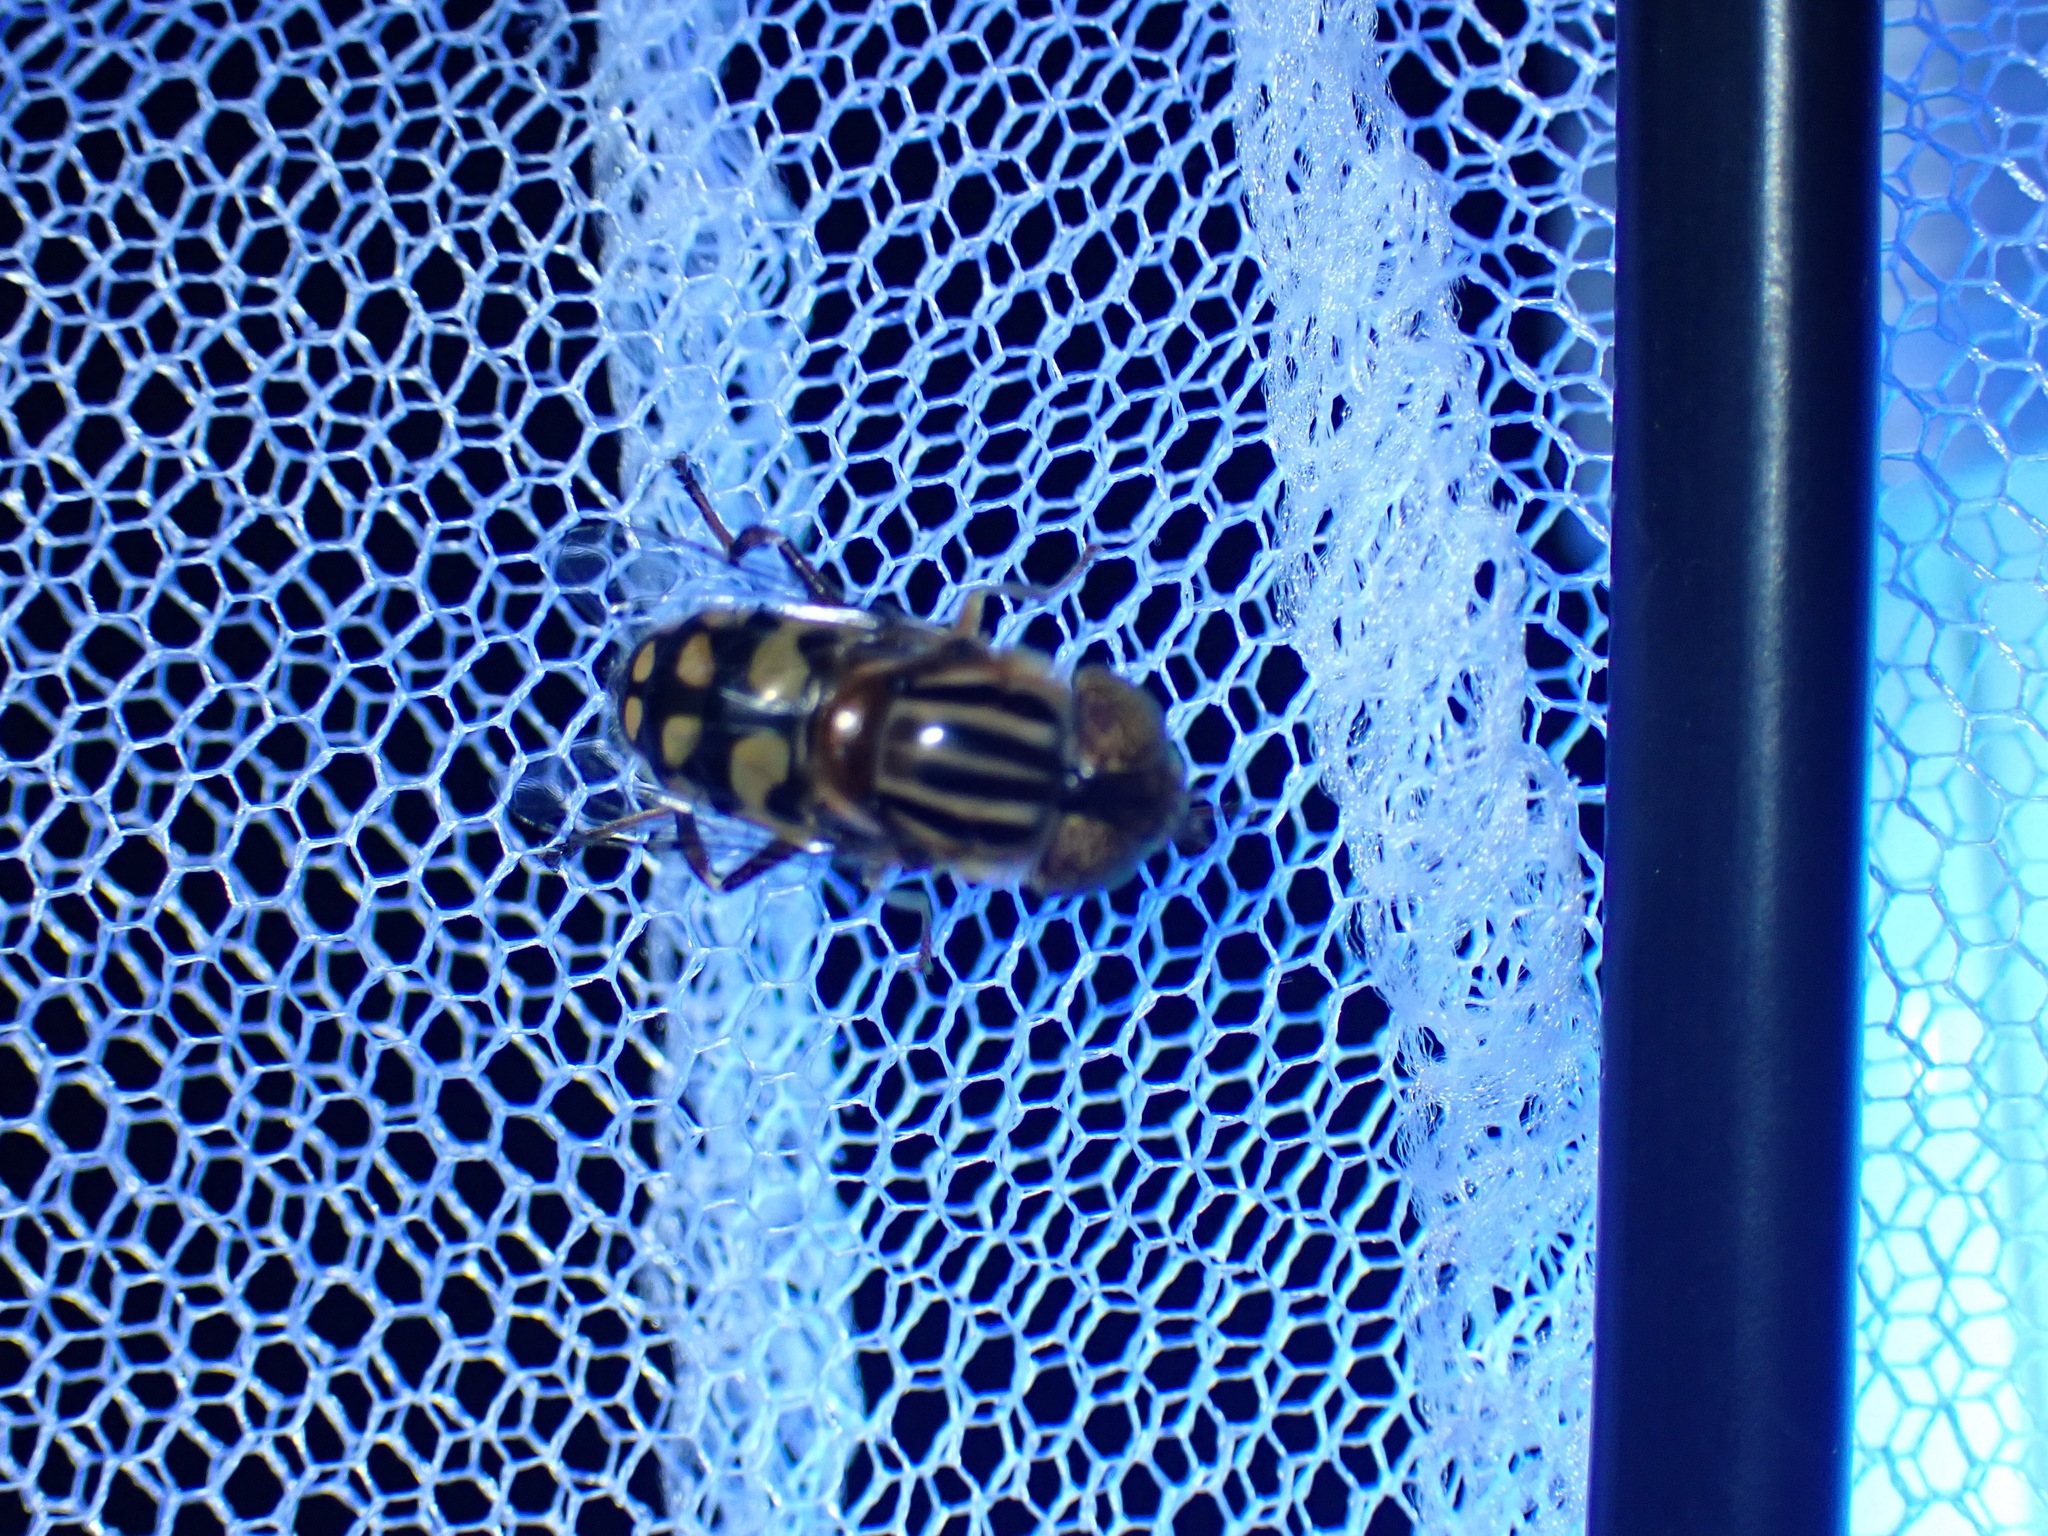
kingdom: Animalia
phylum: Arthropoda
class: Insecta
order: Diptera
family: Syrphidae
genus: Eristalinus
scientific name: Eristalinus punctulatus
